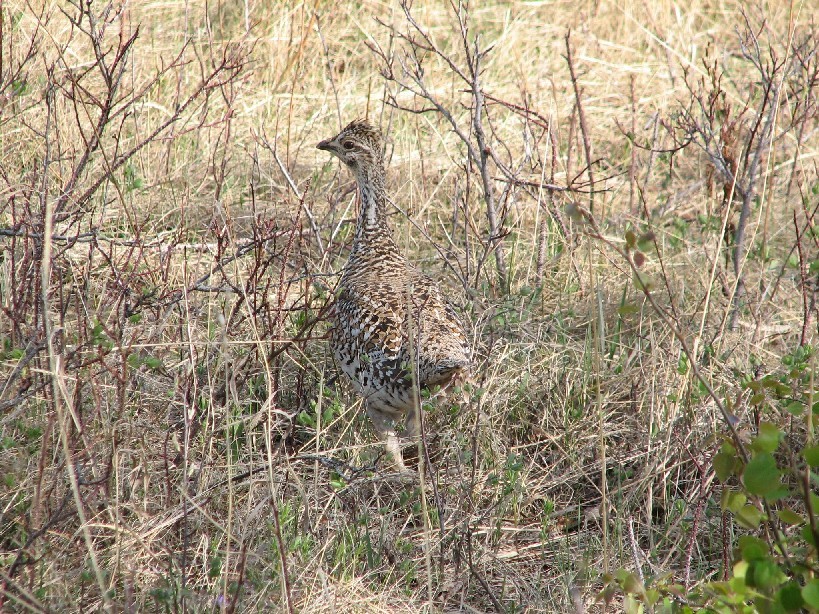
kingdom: Animalia
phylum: Chordata
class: Aves
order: Galliformes
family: Phasianidae
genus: Tympanuchus
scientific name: Tympanuchus phasianellus
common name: Sharp-tailed grouse
